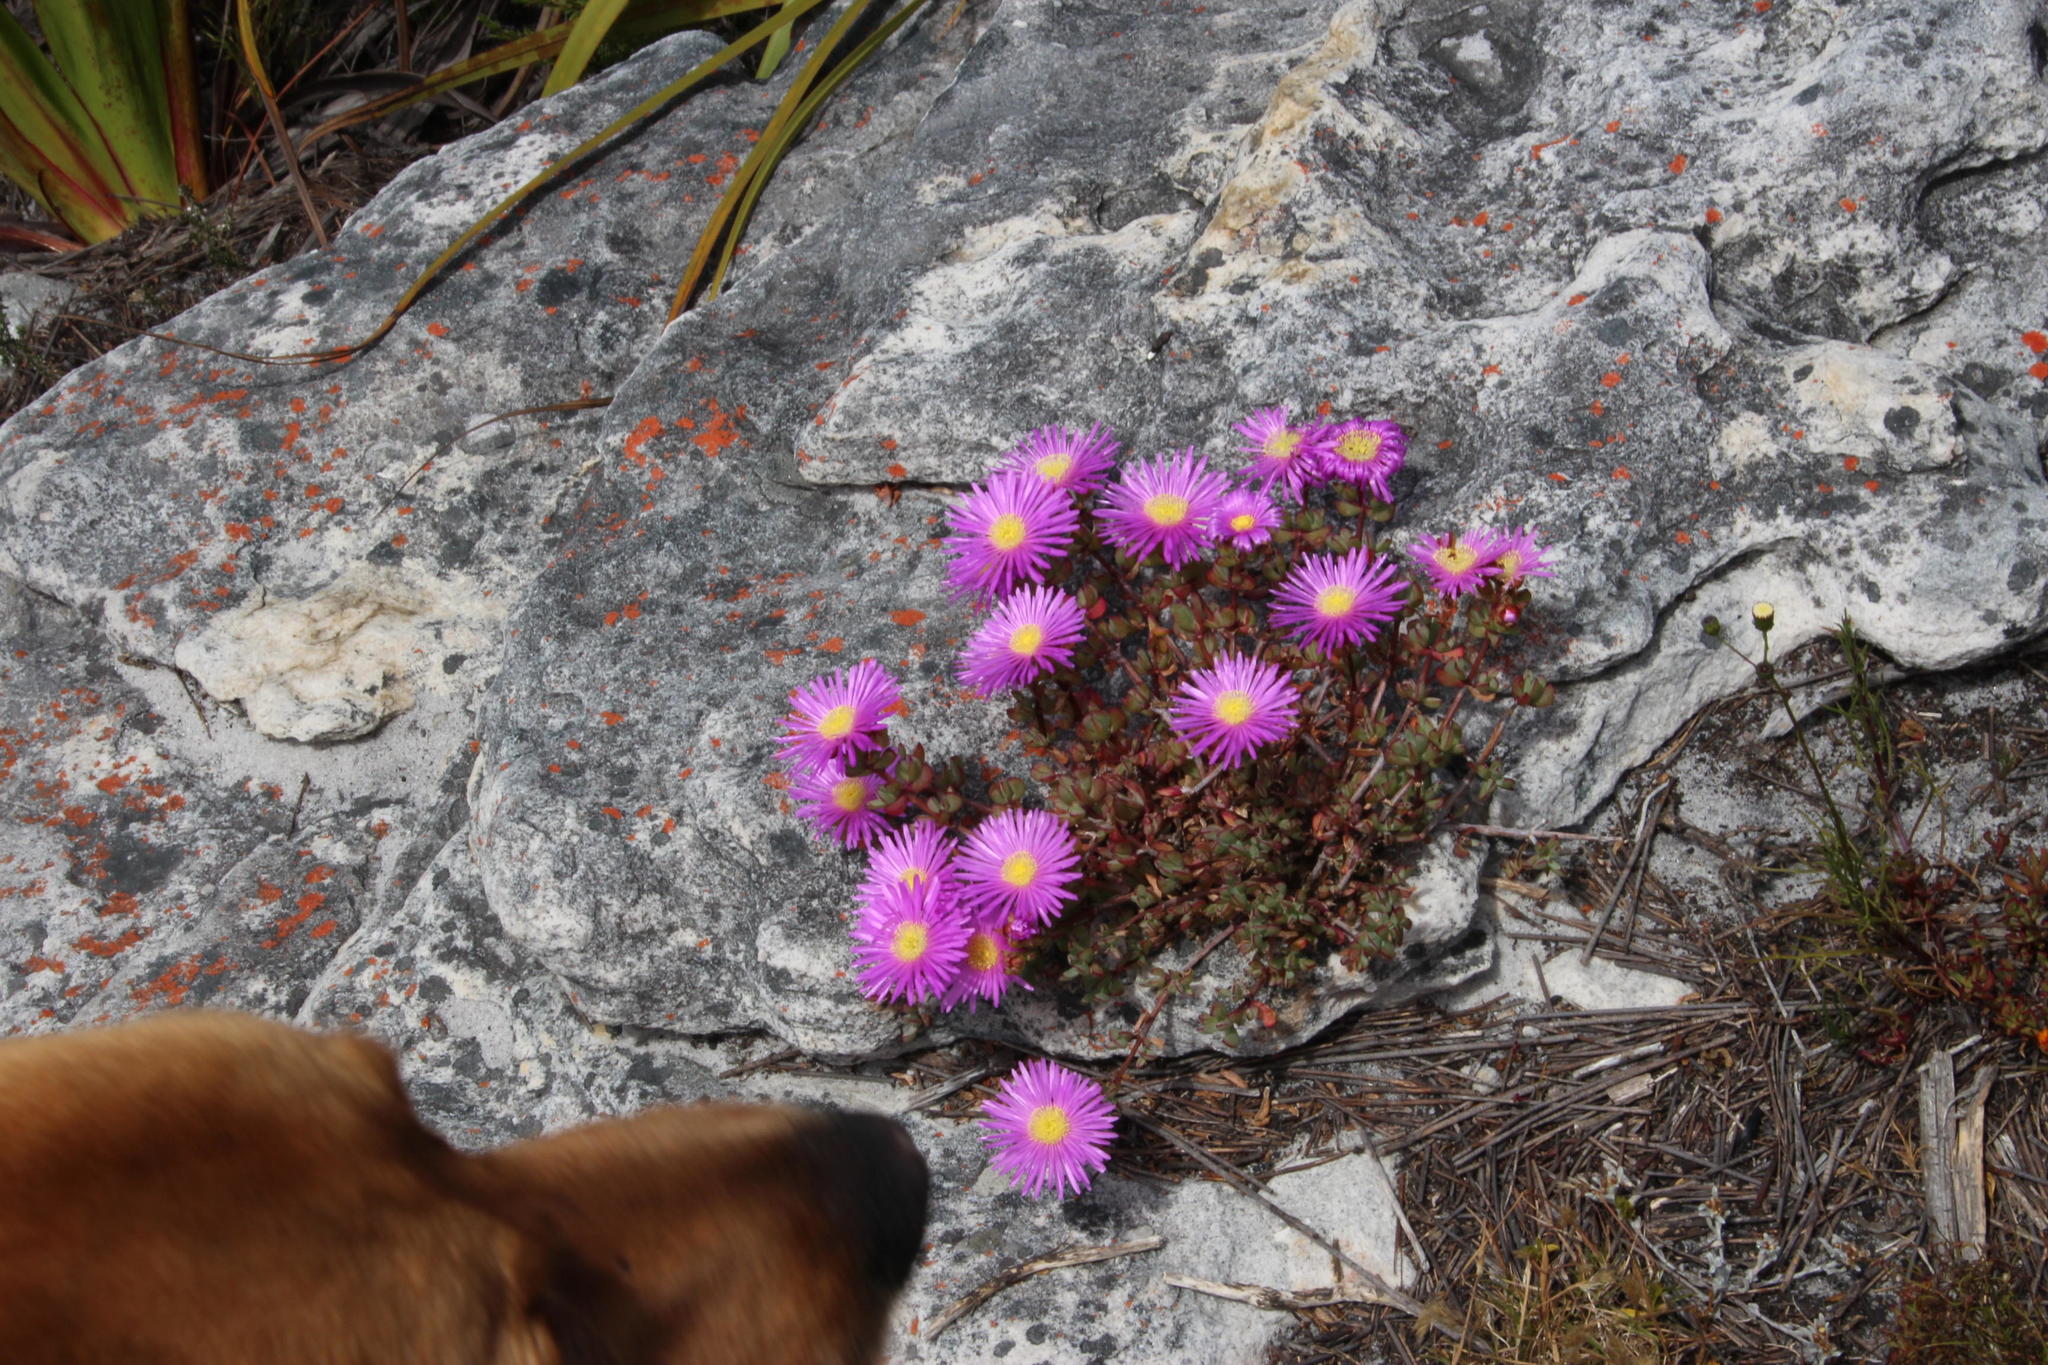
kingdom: Plantae
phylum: Tracheophyta
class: Magnoliopsida
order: Caryophyllales
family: Aizoaceae
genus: Oscularia
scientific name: Oscularia falciformis
